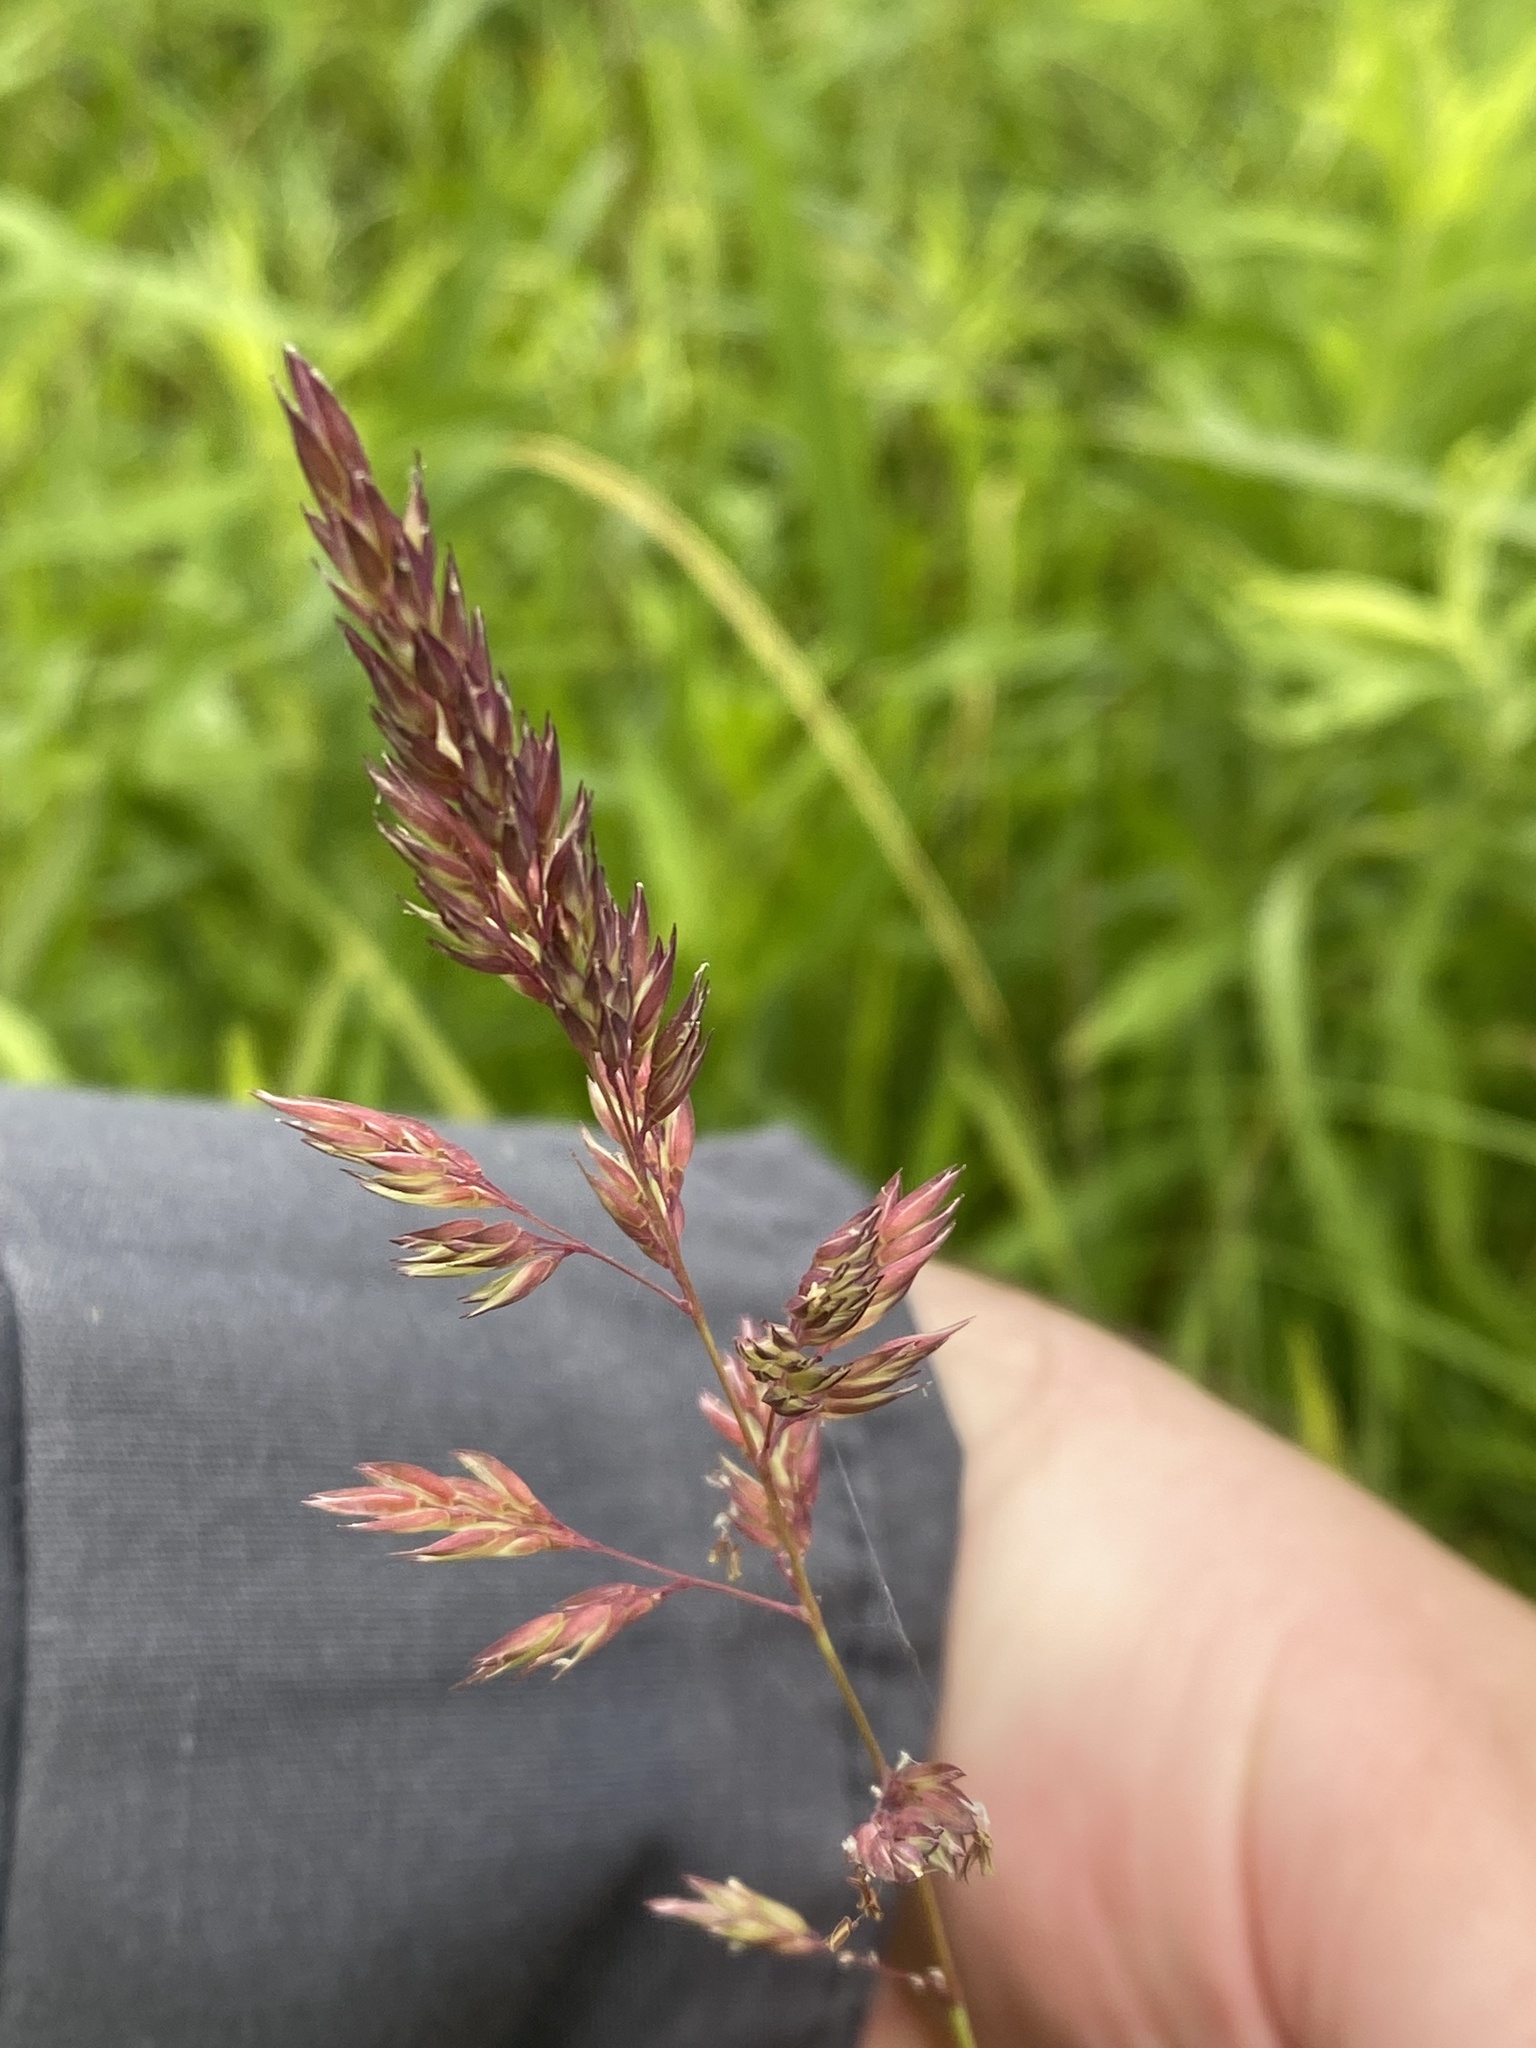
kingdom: Plantae
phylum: Tracheophyta
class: Liliopsida
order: Poales
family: Poaceae
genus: Phalaris
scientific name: Phalaris arundinacea
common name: Reed canary-grass
